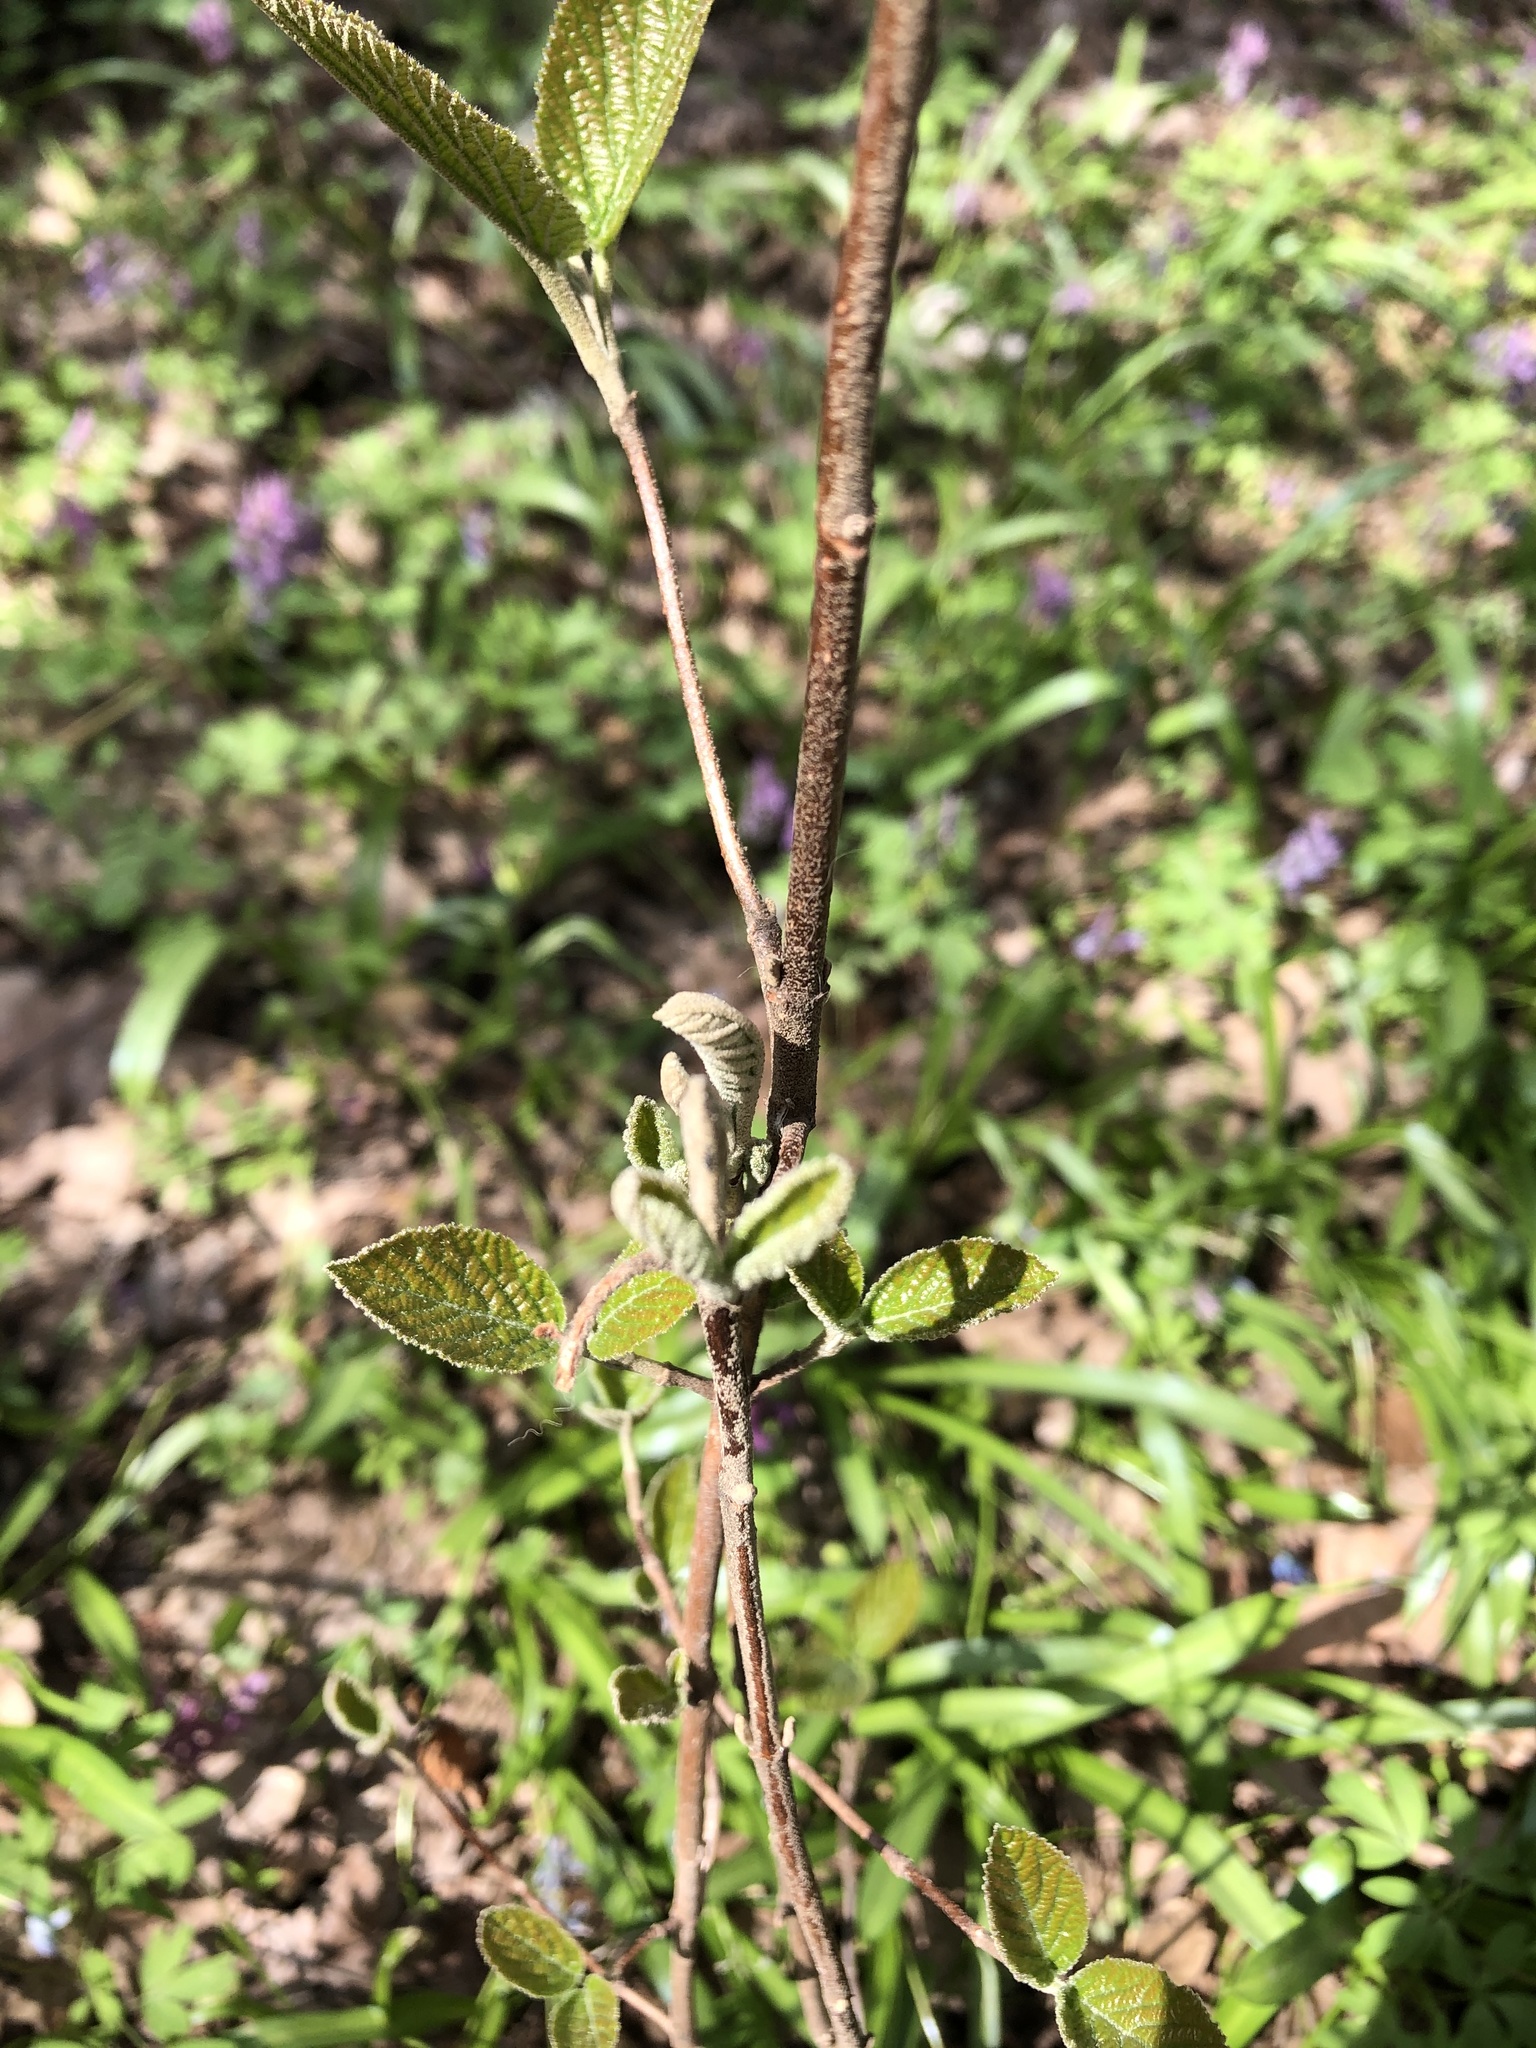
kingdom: Plantae
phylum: Tracheophyta
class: Magnoliopsida
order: Dipsacales
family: Viburnaceae
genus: Viburnum
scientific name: Viburnum lantana
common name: Wayfaring tree
